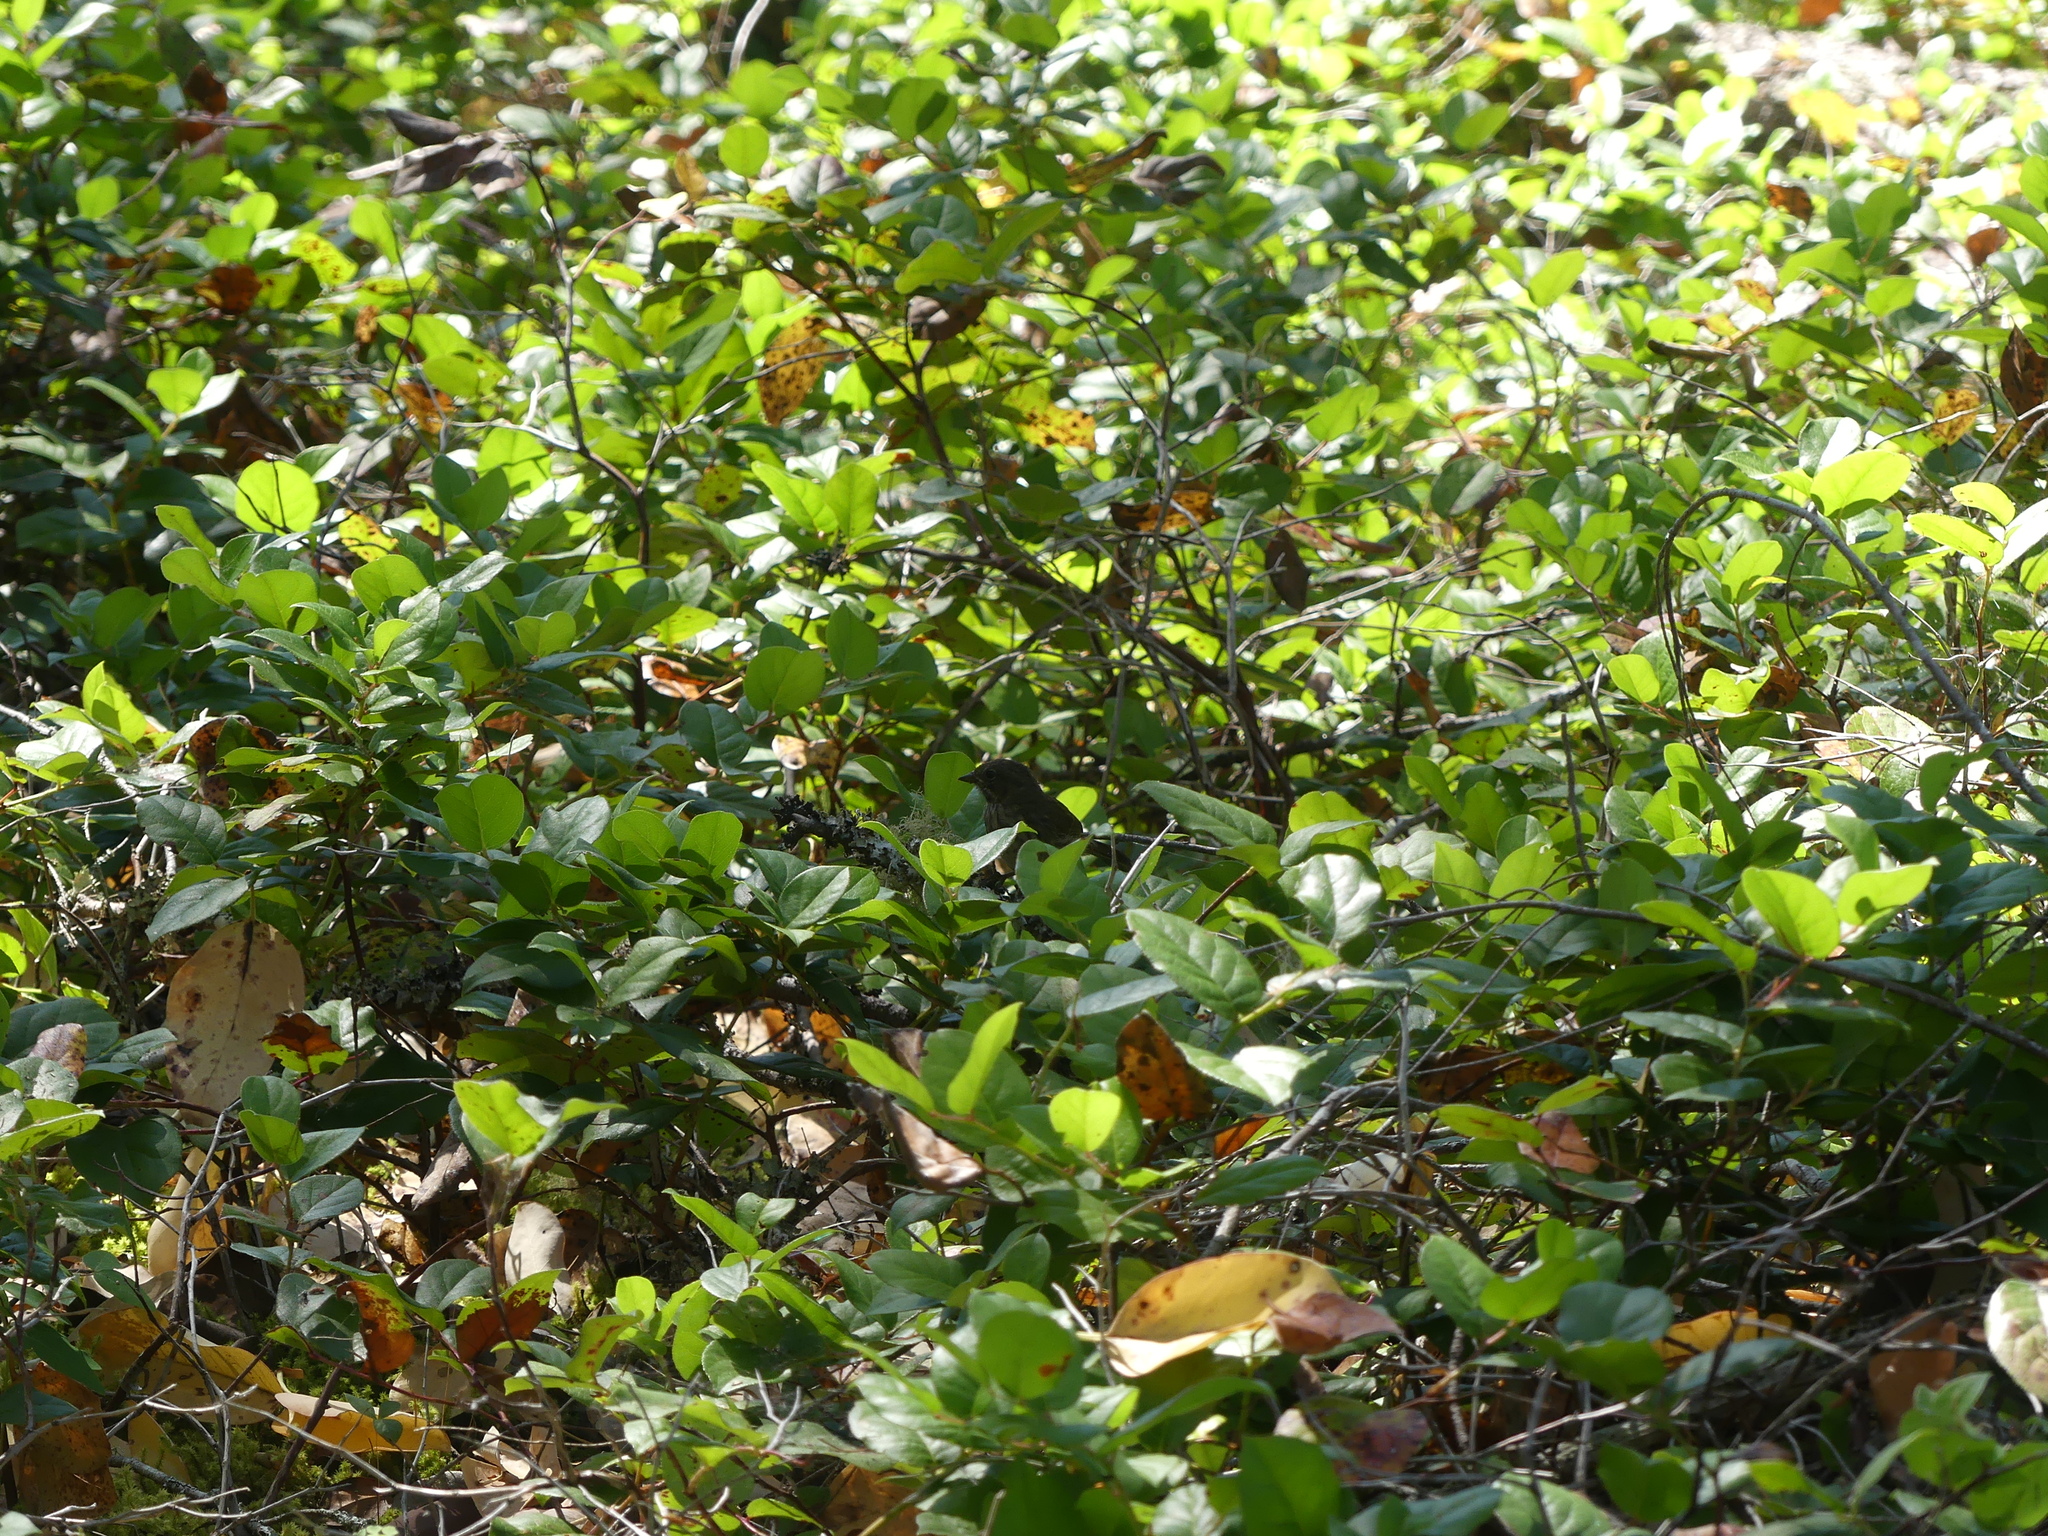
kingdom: Plantae
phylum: Tracheophyta
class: Magnoliopsida
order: Ericales
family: Ericaceae
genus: Gaultheria
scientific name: Gaultheria shallon
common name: Shallon
